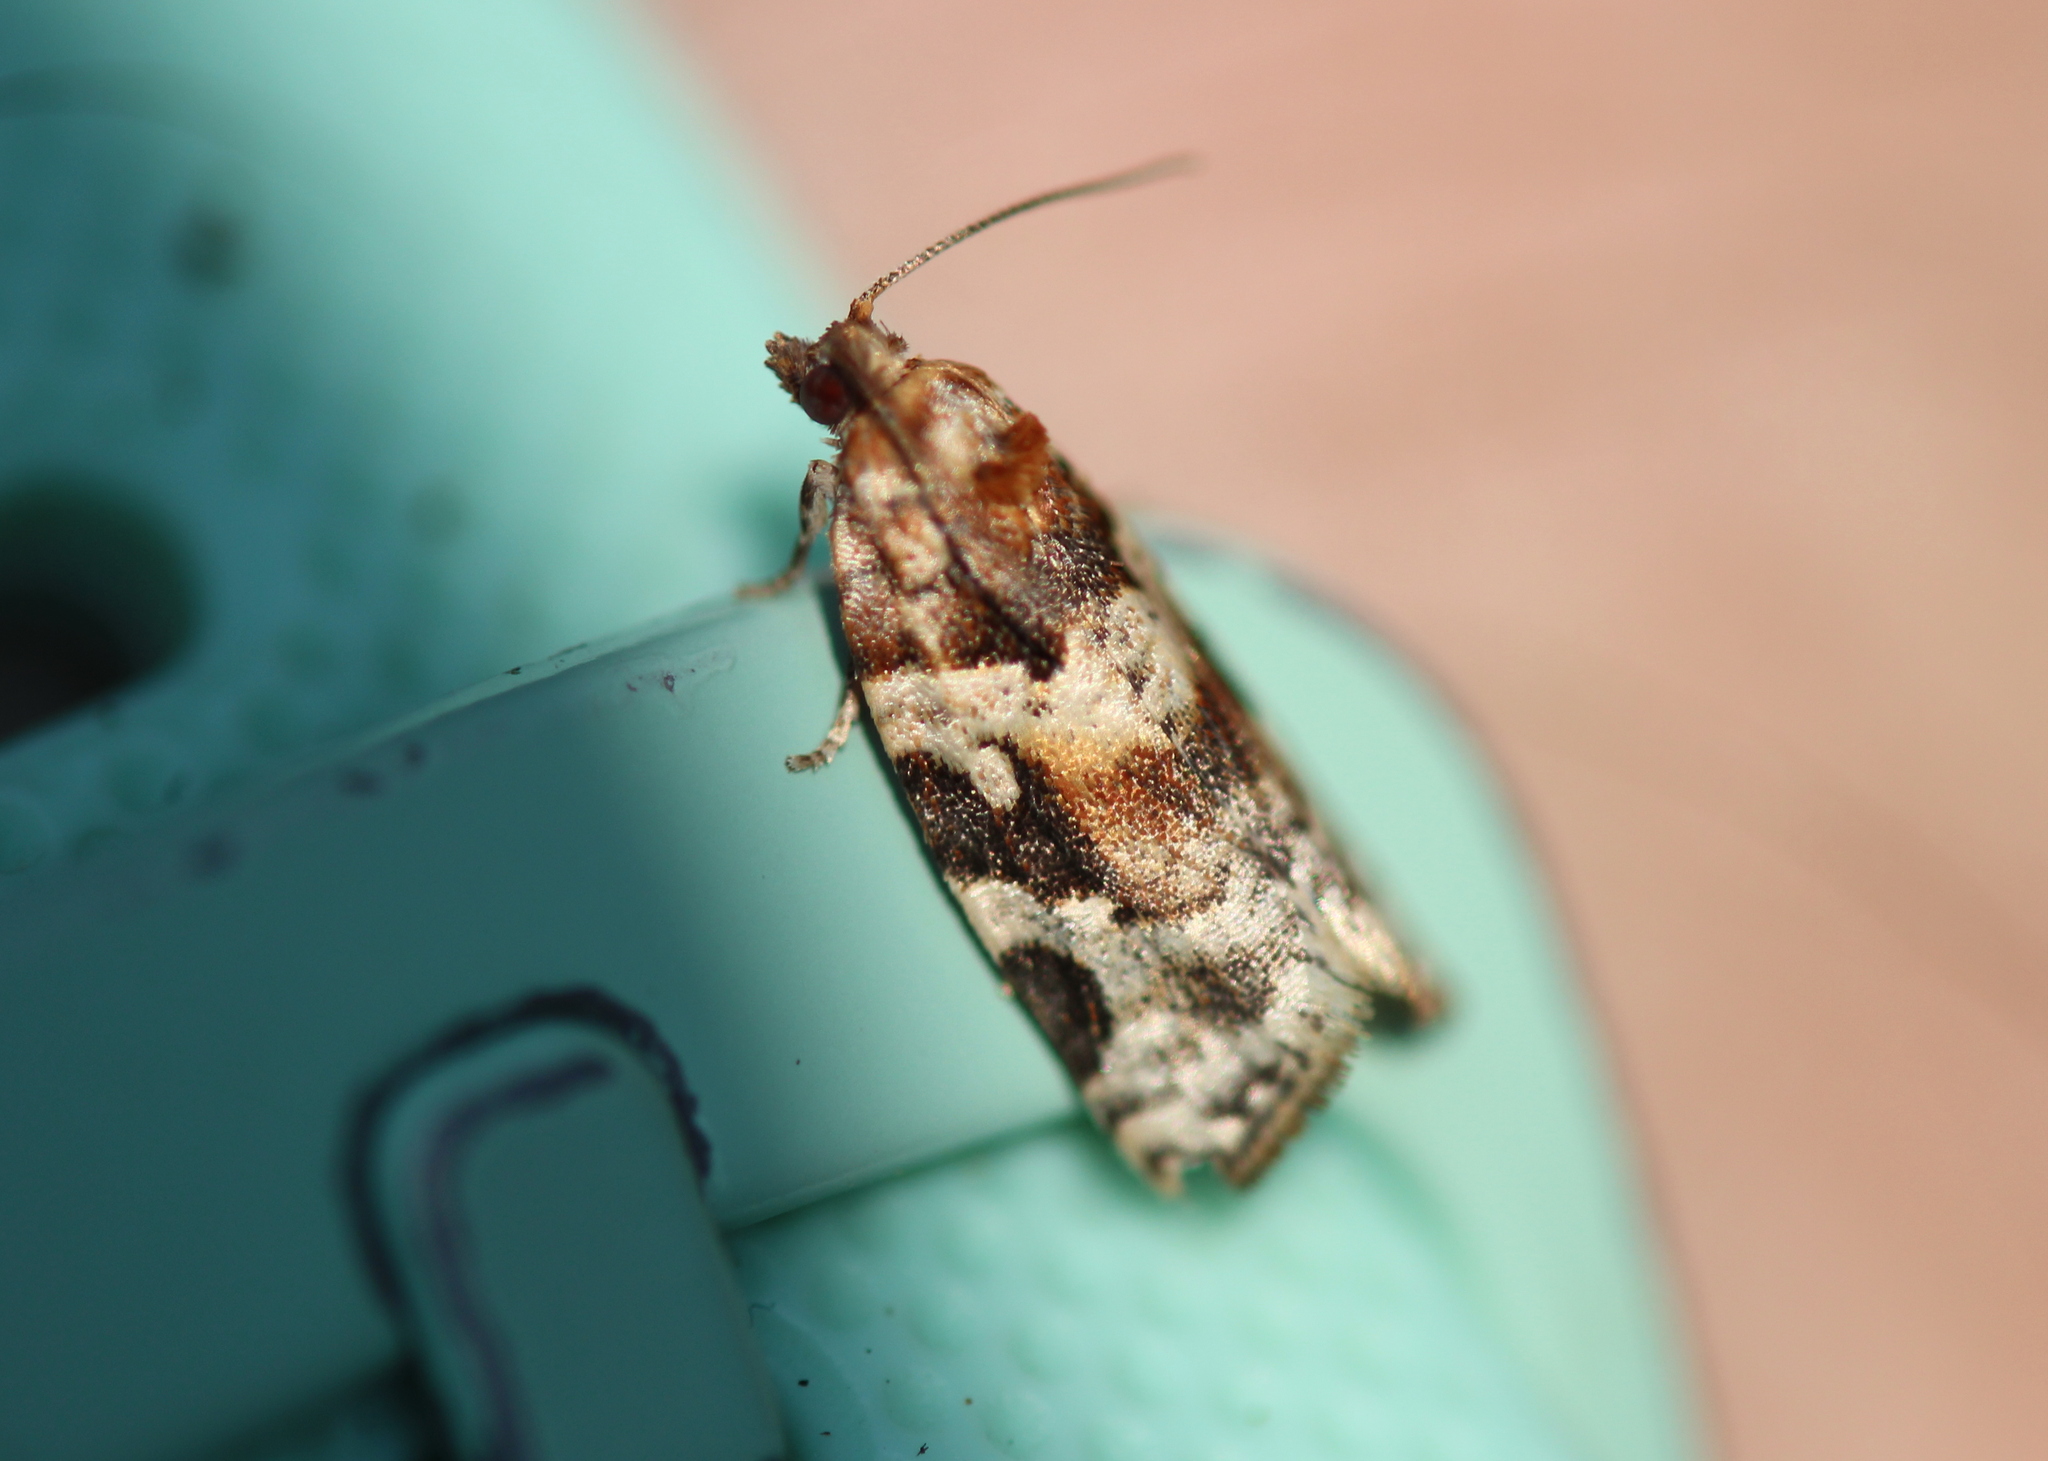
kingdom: Animalia
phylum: Arthropoda
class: Insecta
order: Lepidoptera
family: Tortricidae
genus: Argyrotaenia
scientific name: Argyrotaenia velutinana
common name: Red-banded leafroller moth
